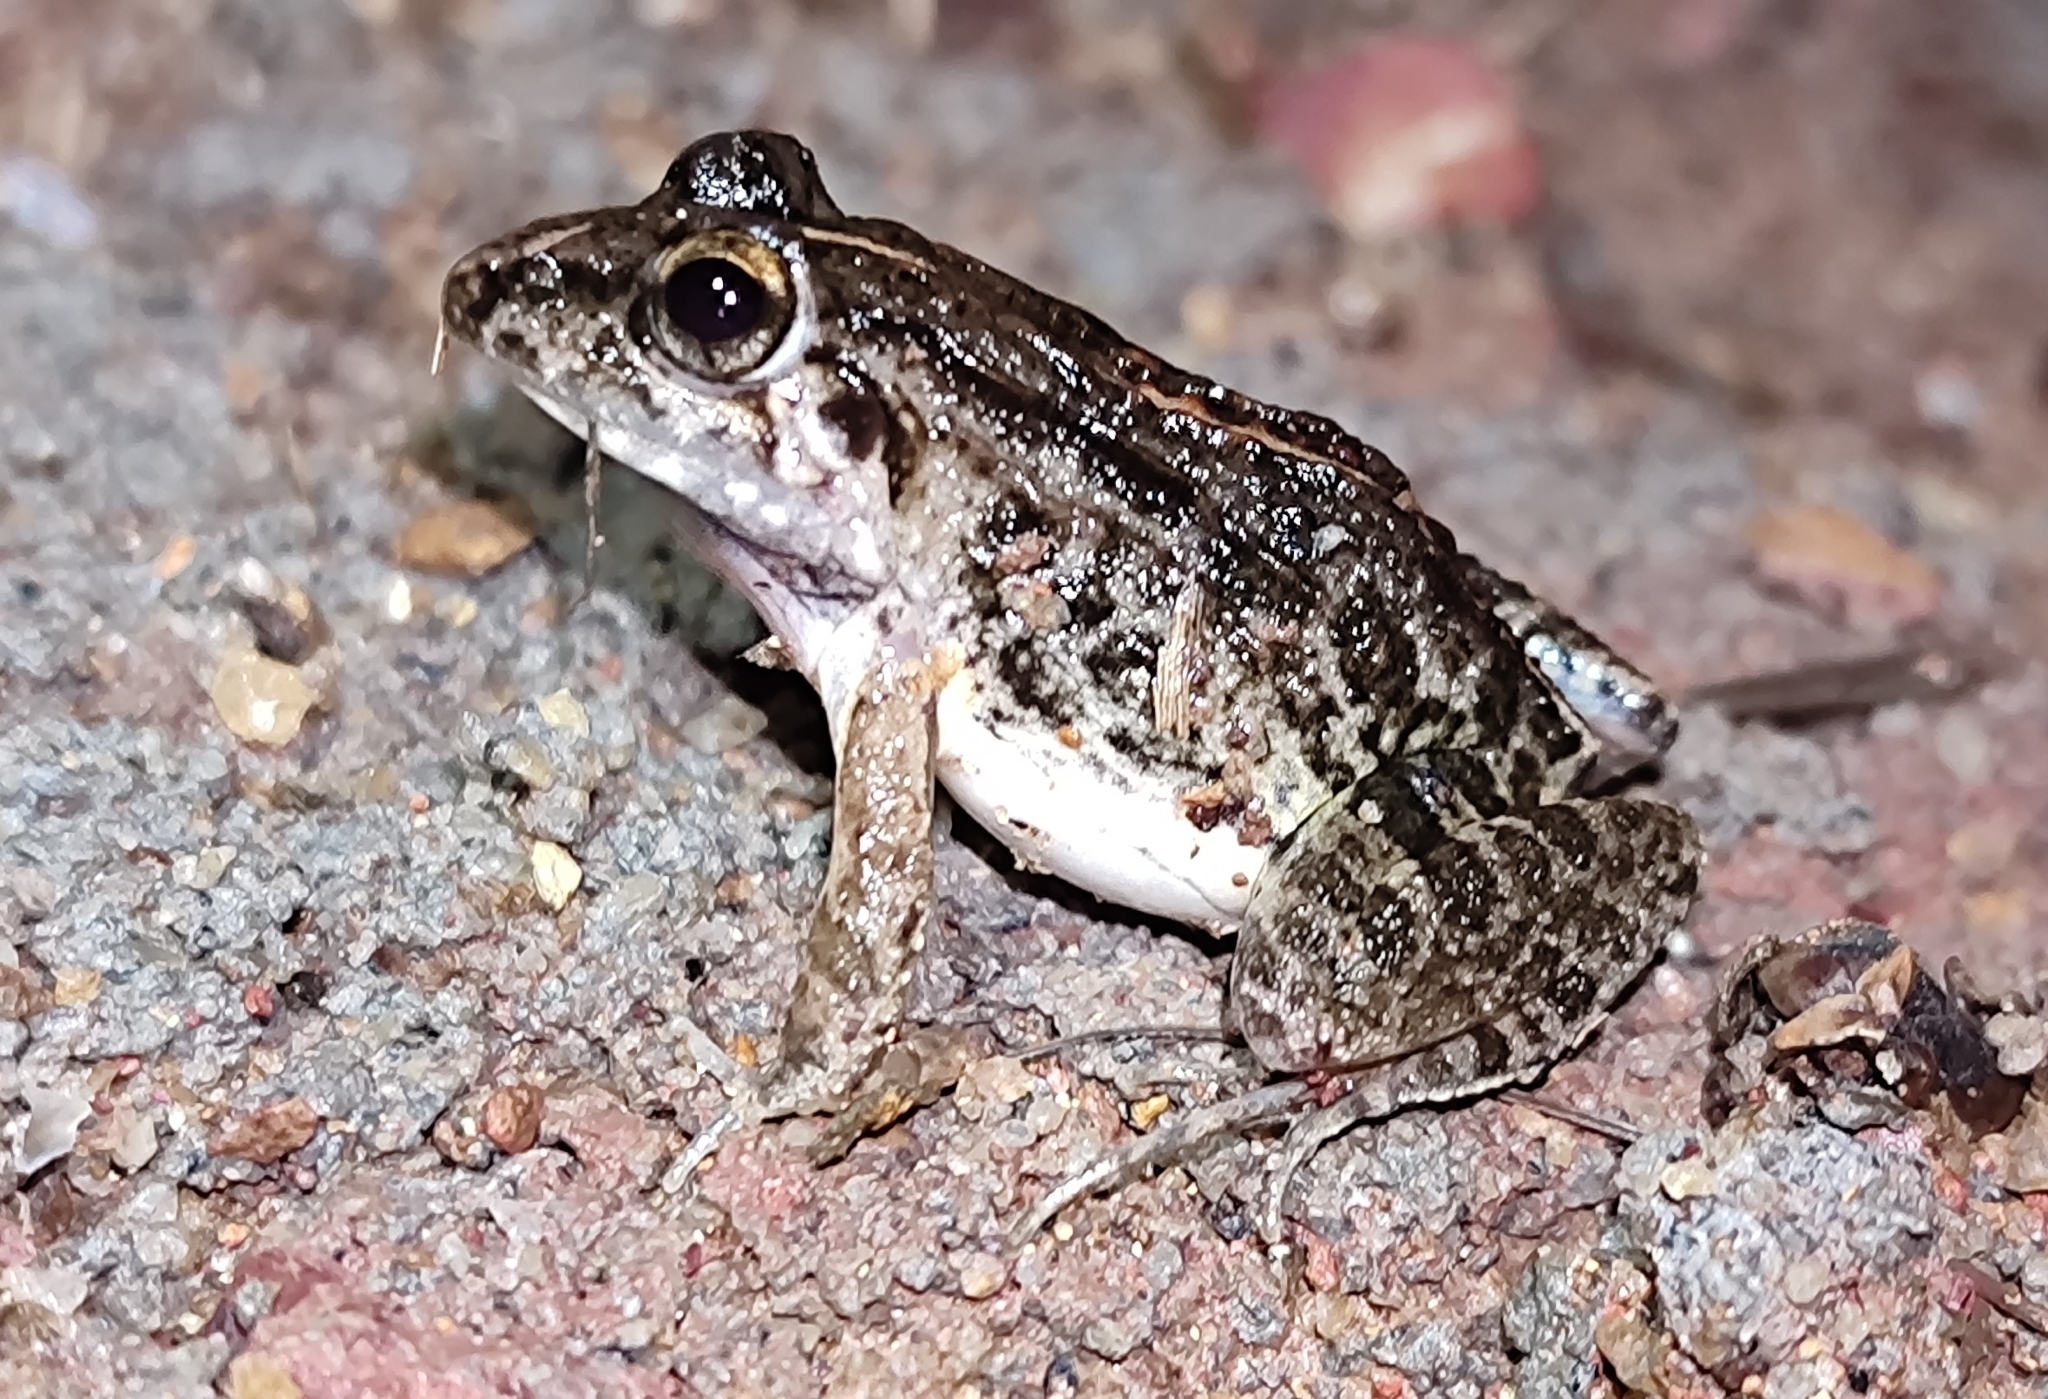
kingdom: Animalia
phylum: Chordata
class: Amphibia
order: Anura
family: Dicroglossidae
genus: Minervarya
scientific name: Minervarya agricola
